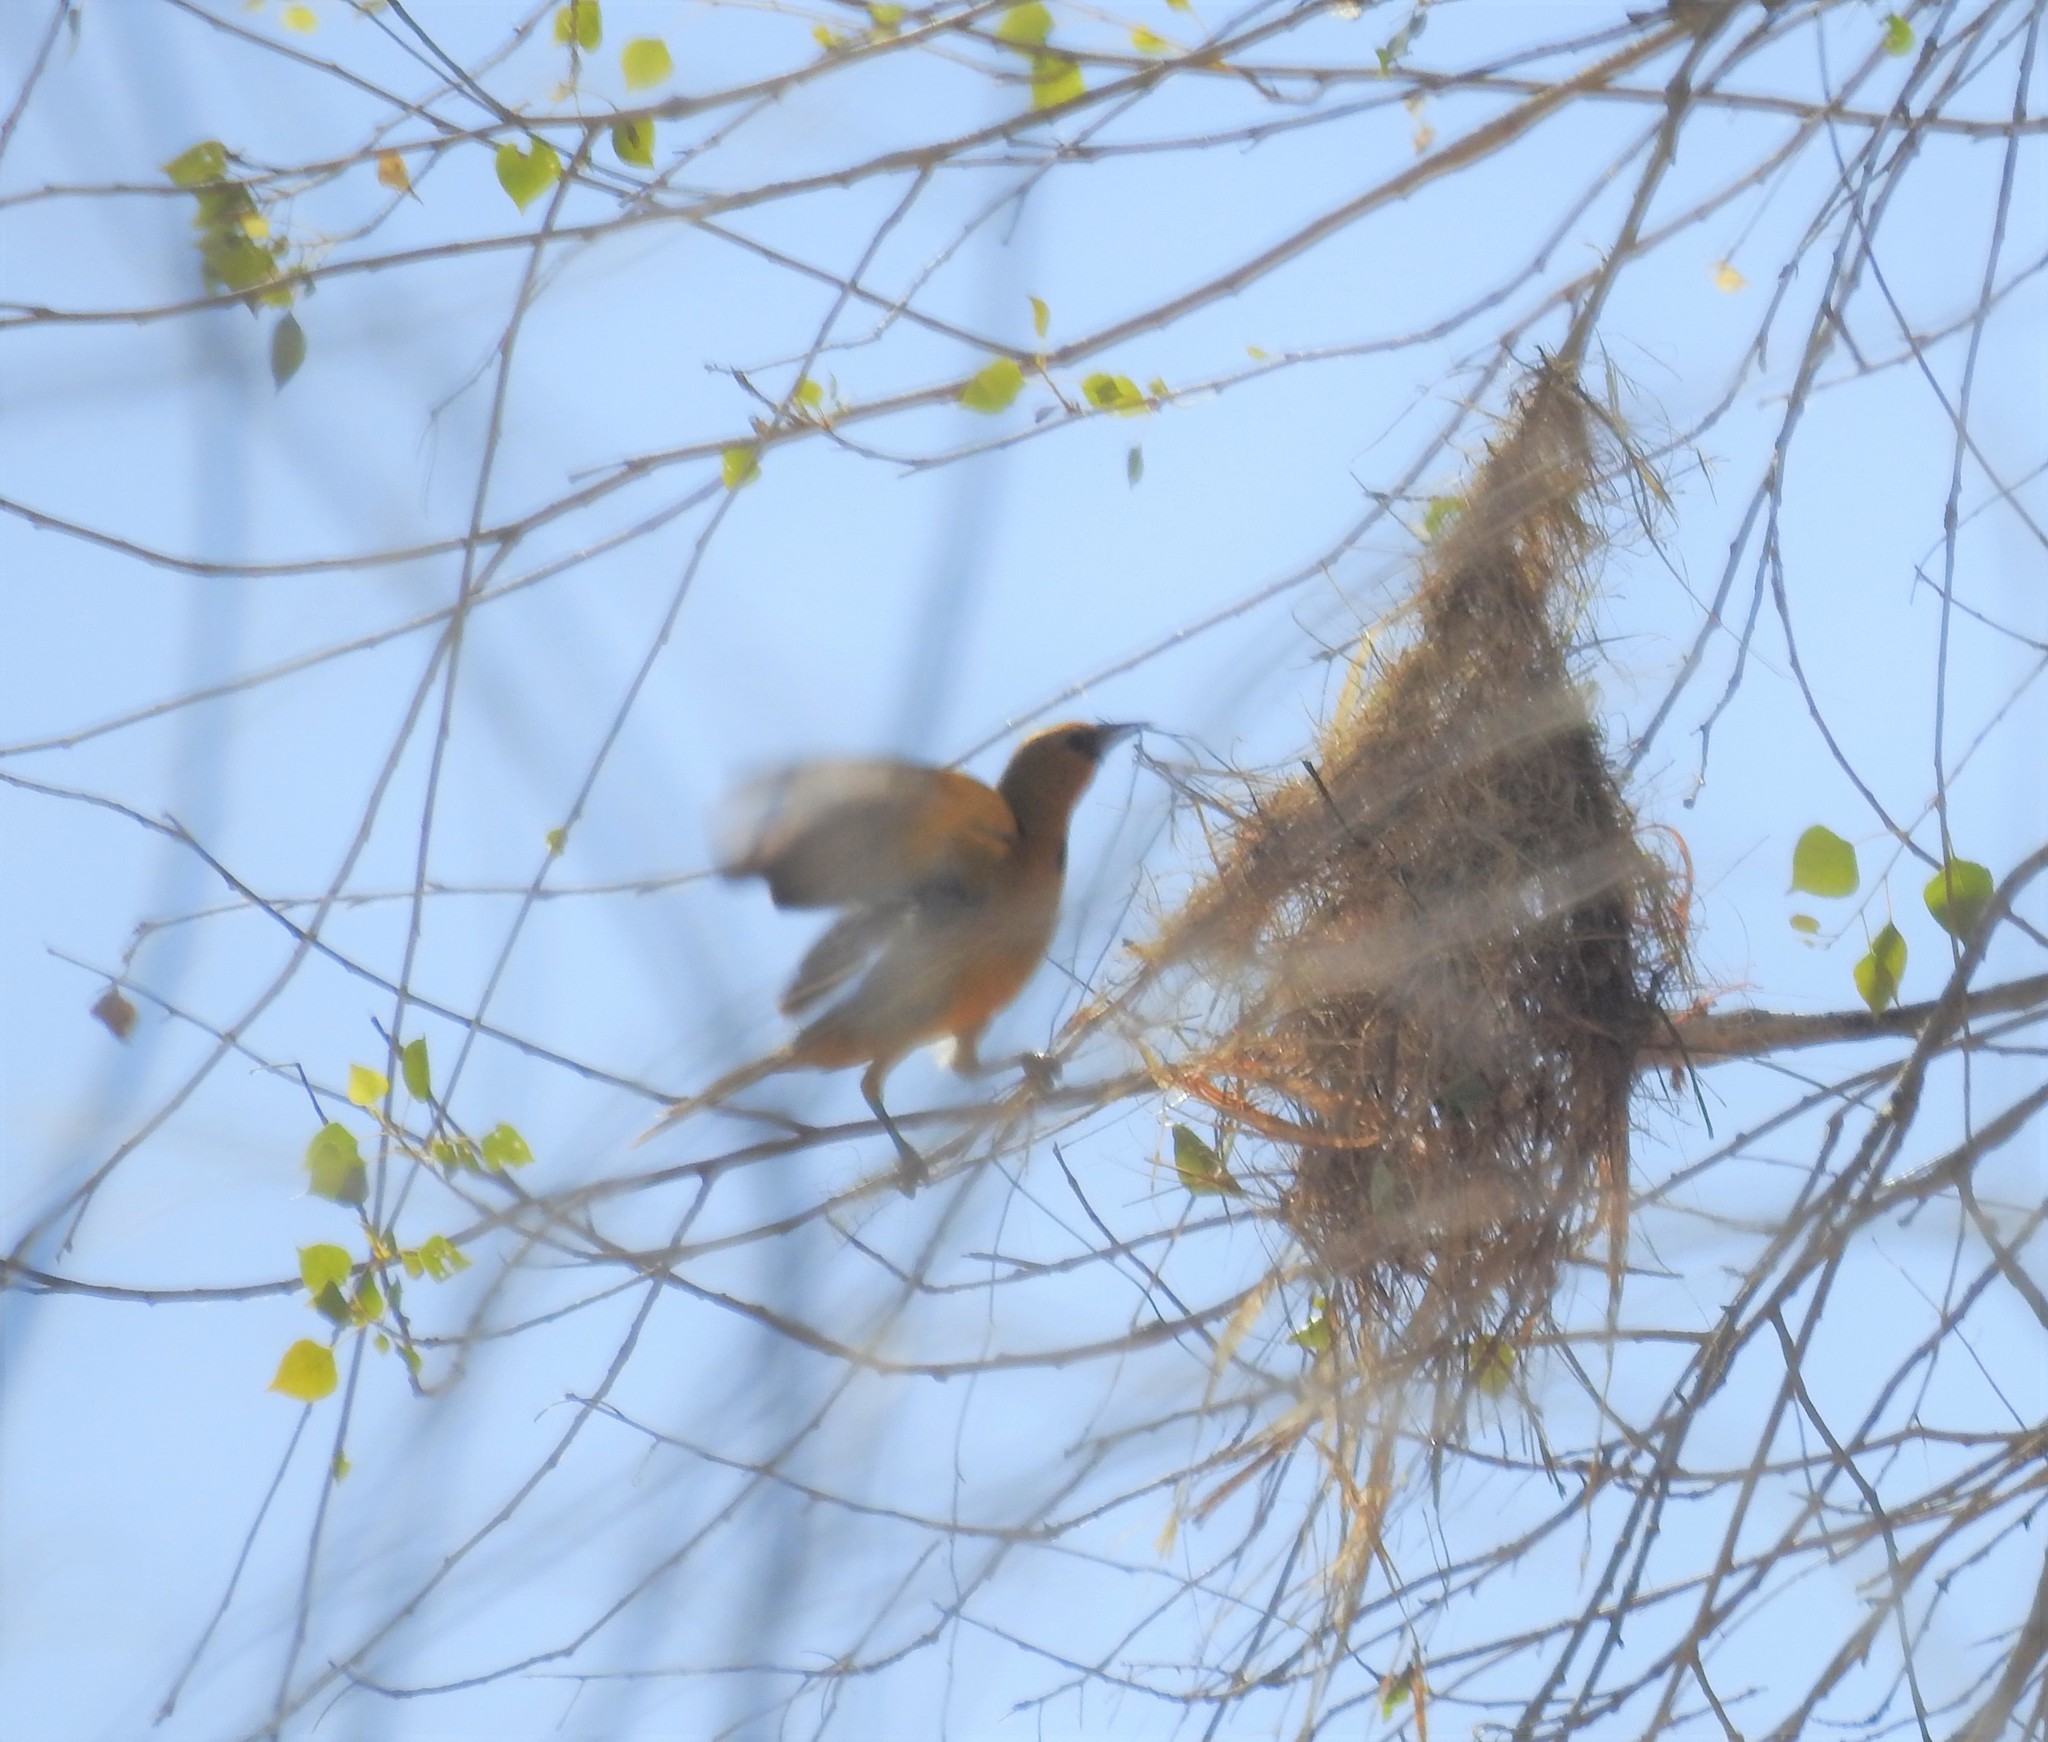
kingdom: Animalia
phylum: Chordata
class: Aves
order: Passeriformes
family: Icteridae
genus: Icterus
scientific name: Icterus pustulatus
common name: Streak-backed oriole
